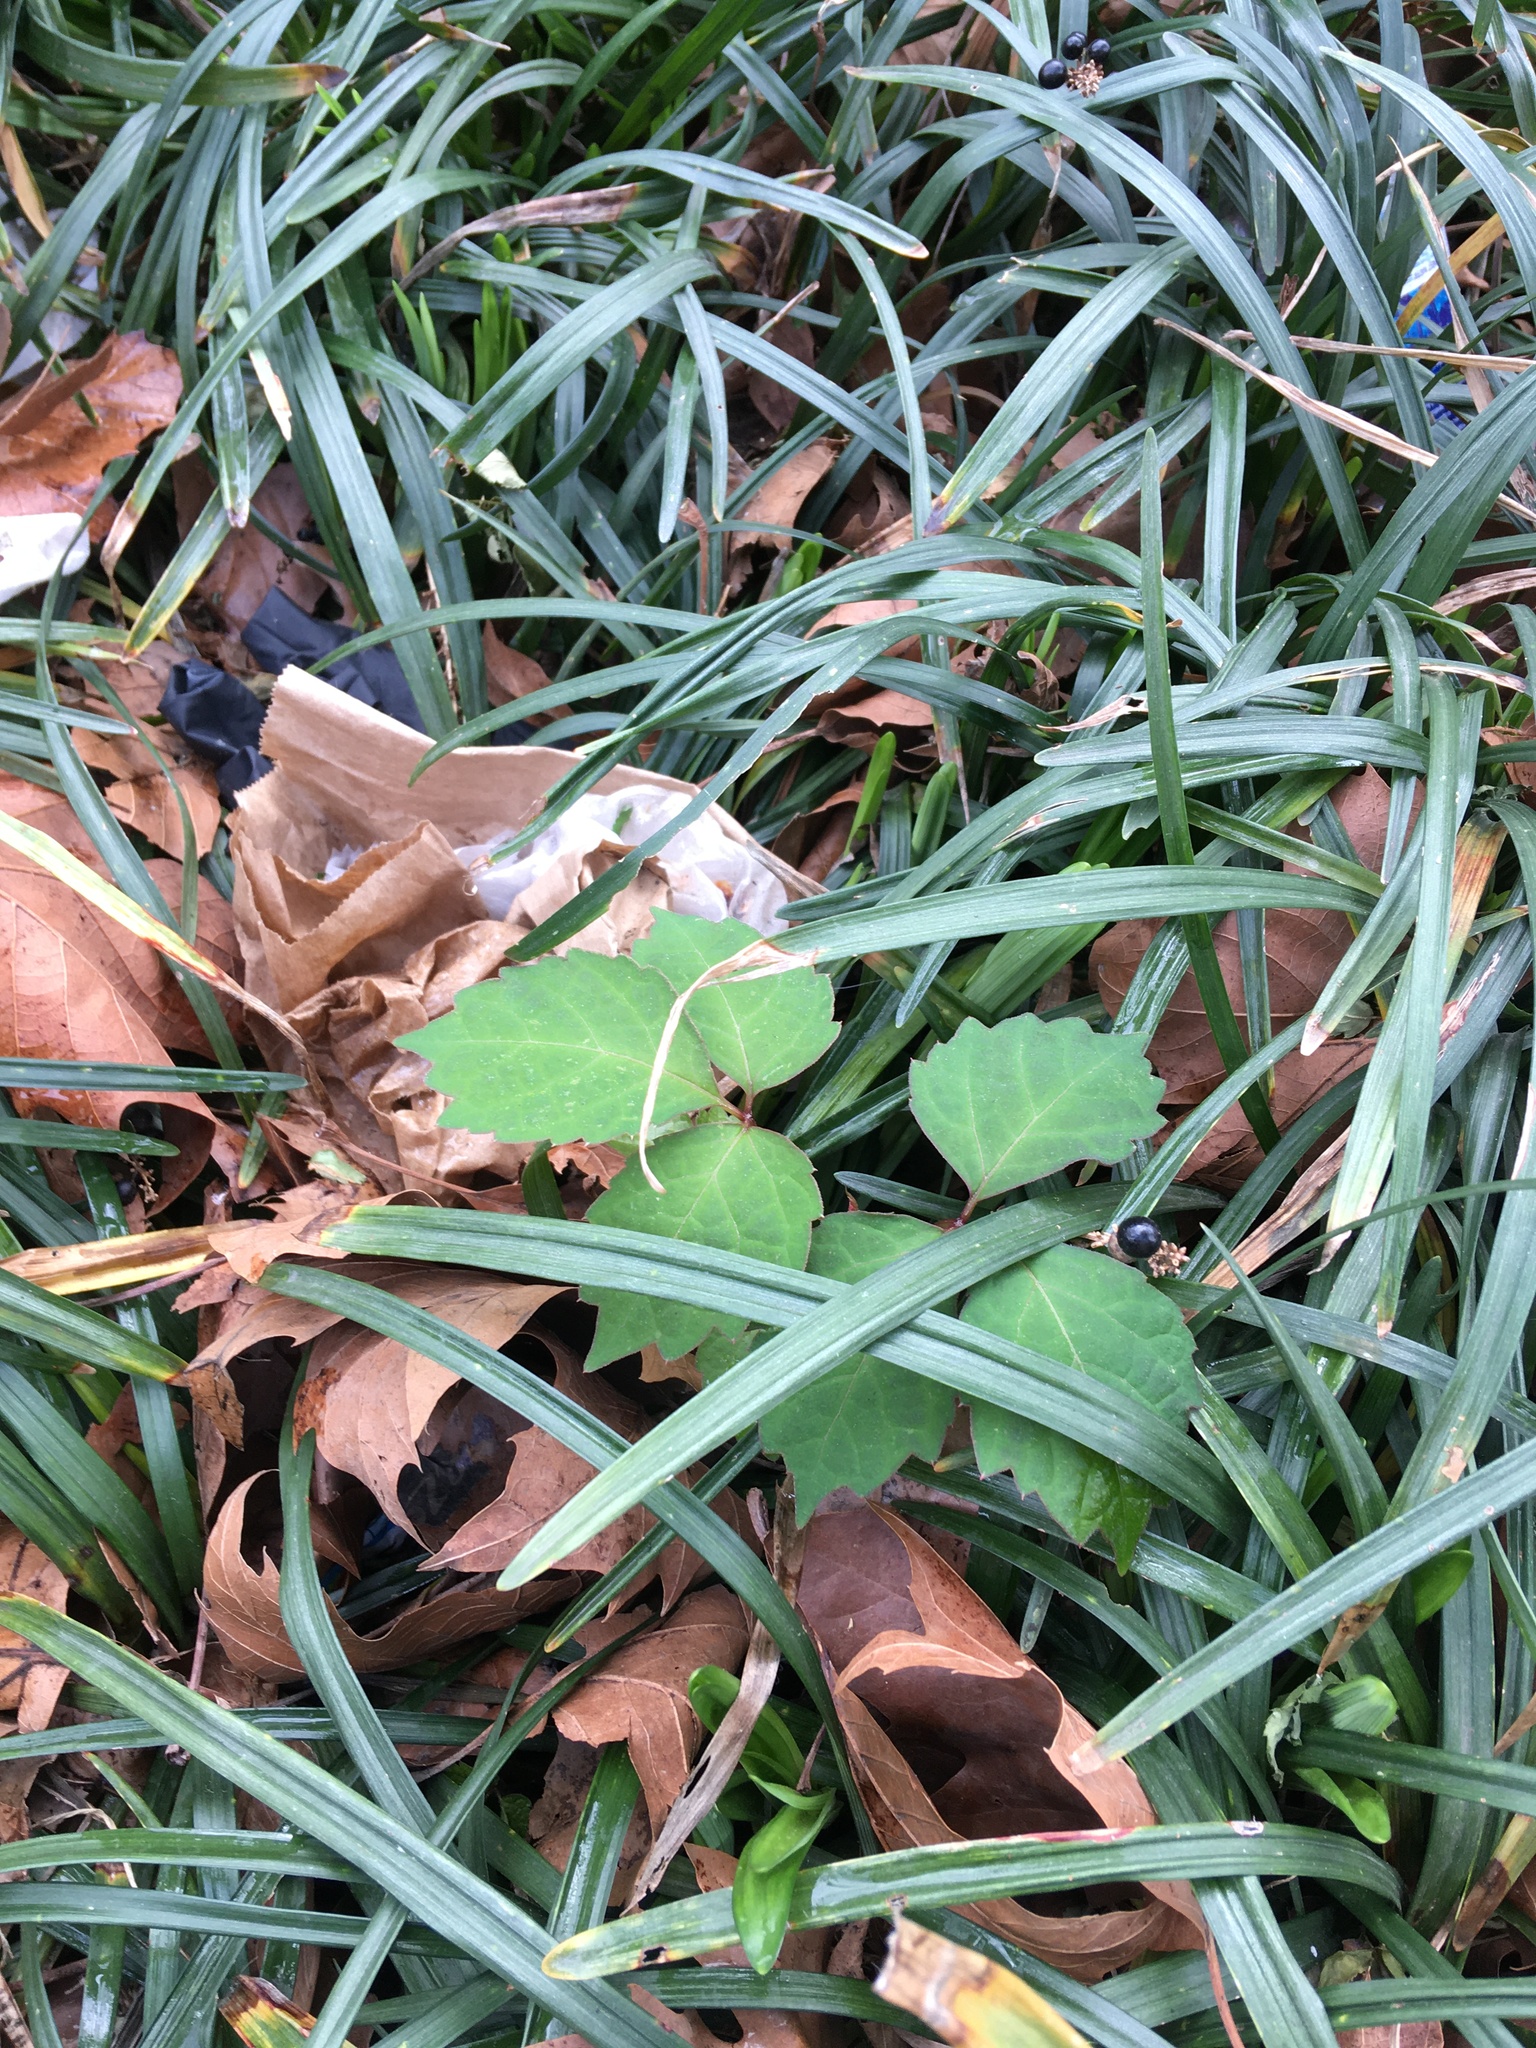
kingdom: Plantae
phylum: Tracheophyta
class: Magnoliopsida
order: Vitales
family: Vitaceae
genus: Parthenocissus
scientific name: Parthenocissus tricuspidata
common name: Boston ivy
